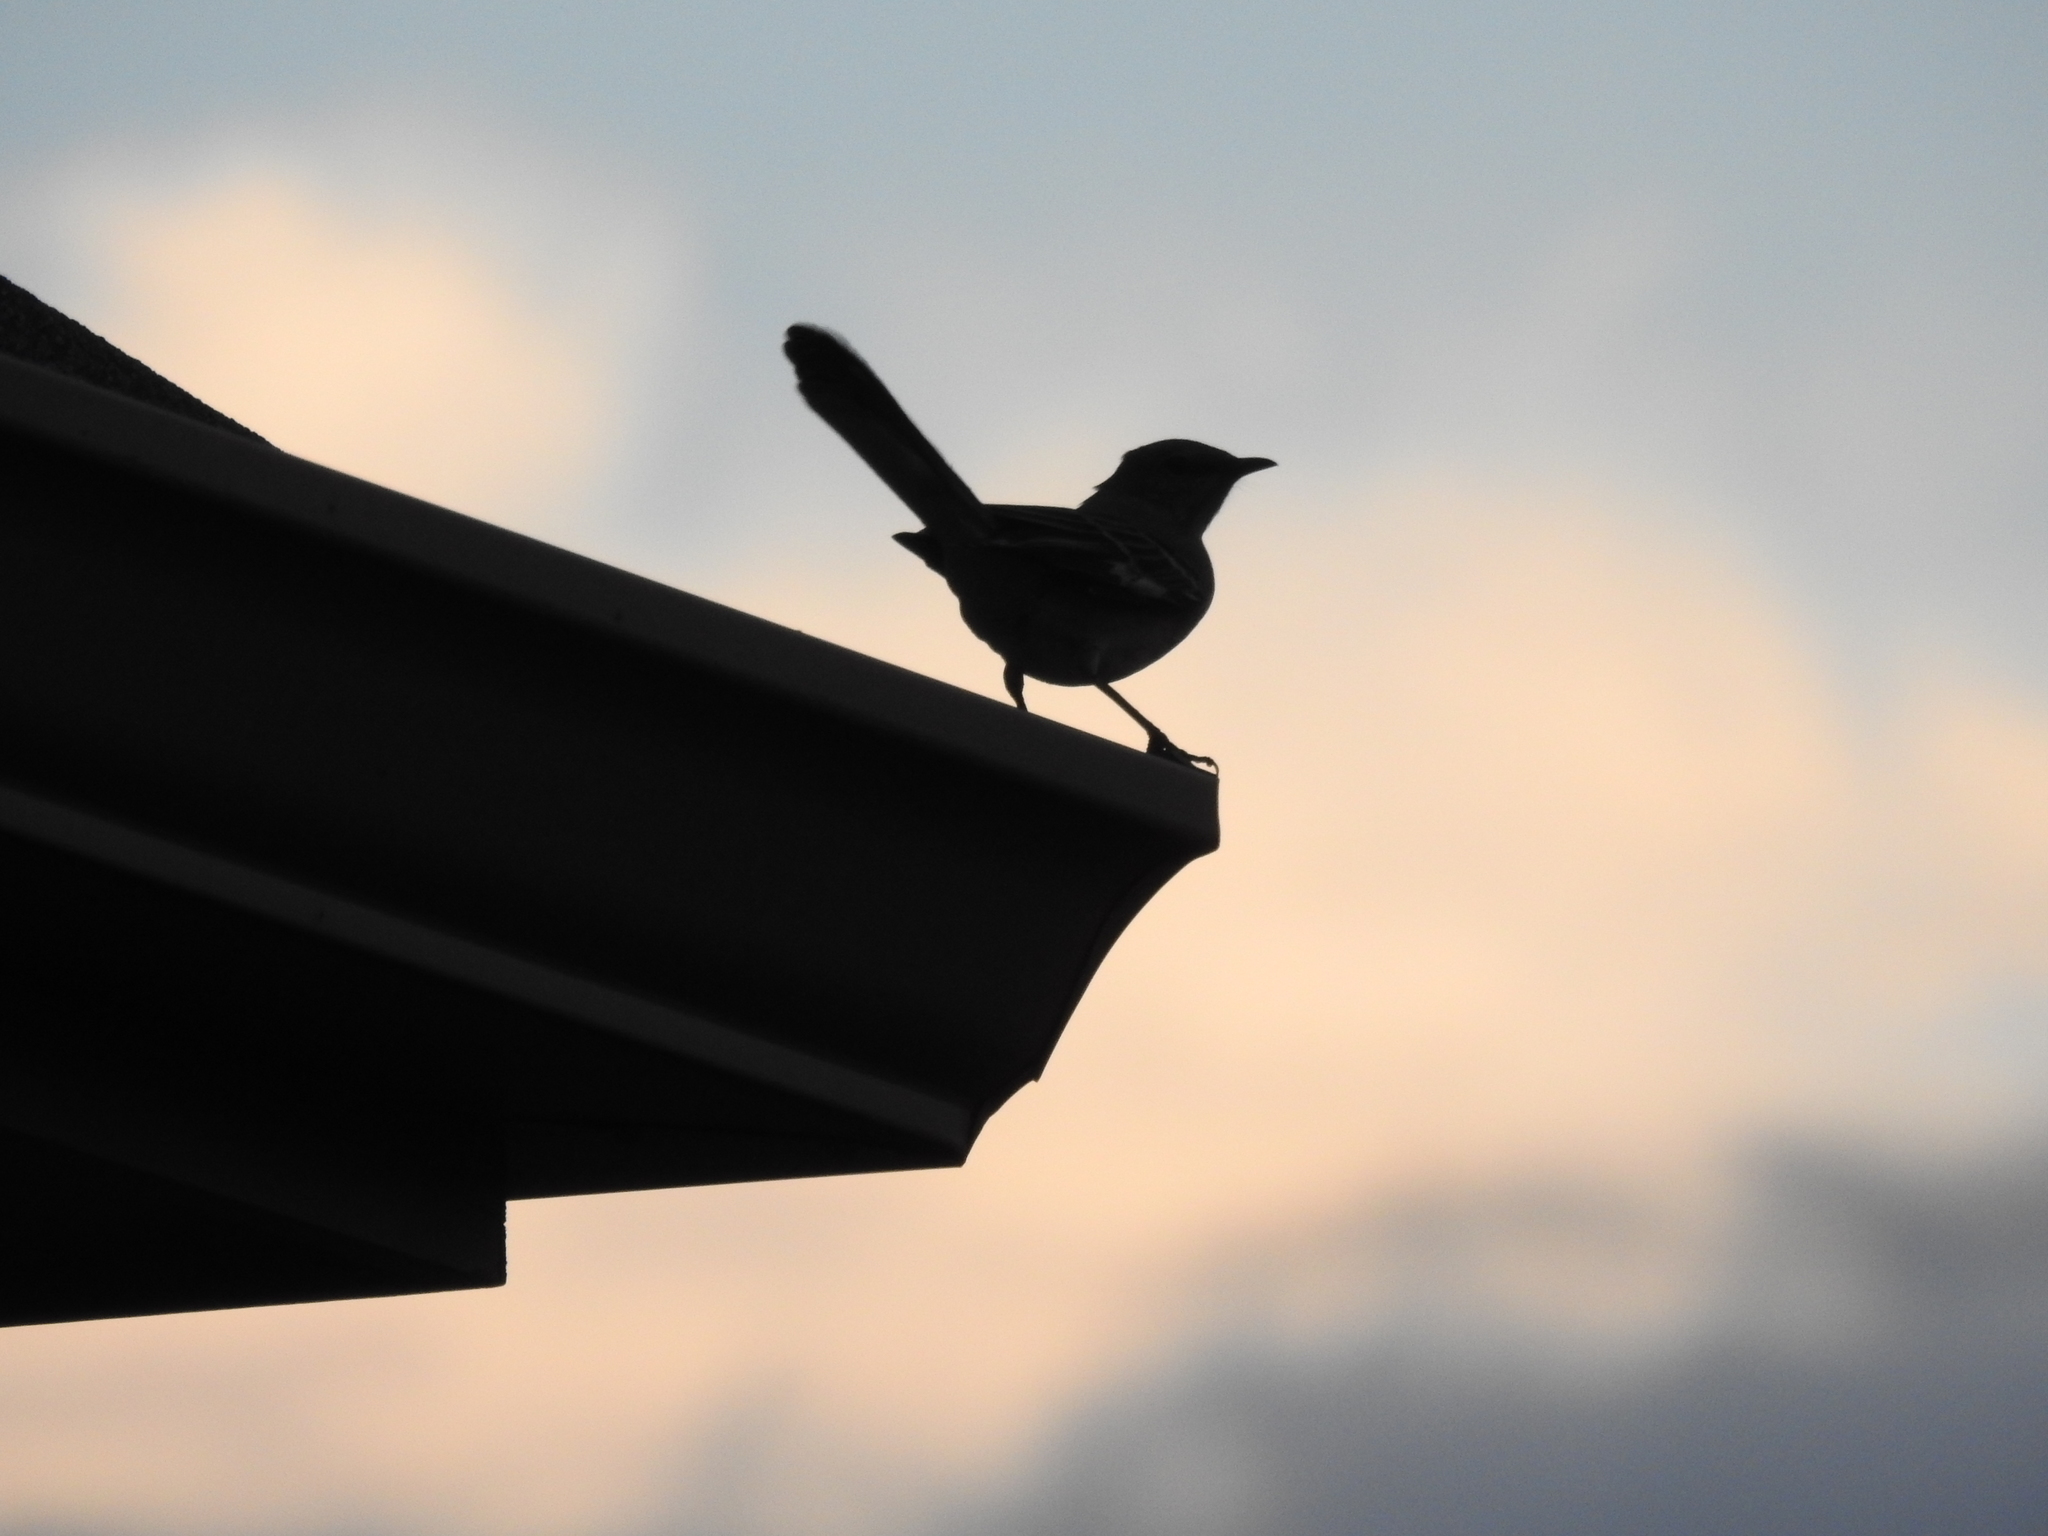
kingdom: Animalia
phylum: Chordata
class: Aves
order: Passeriformes
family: Mimidae
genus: Mimus
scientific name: Mimus polyglottos
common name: Northern mockingbird
